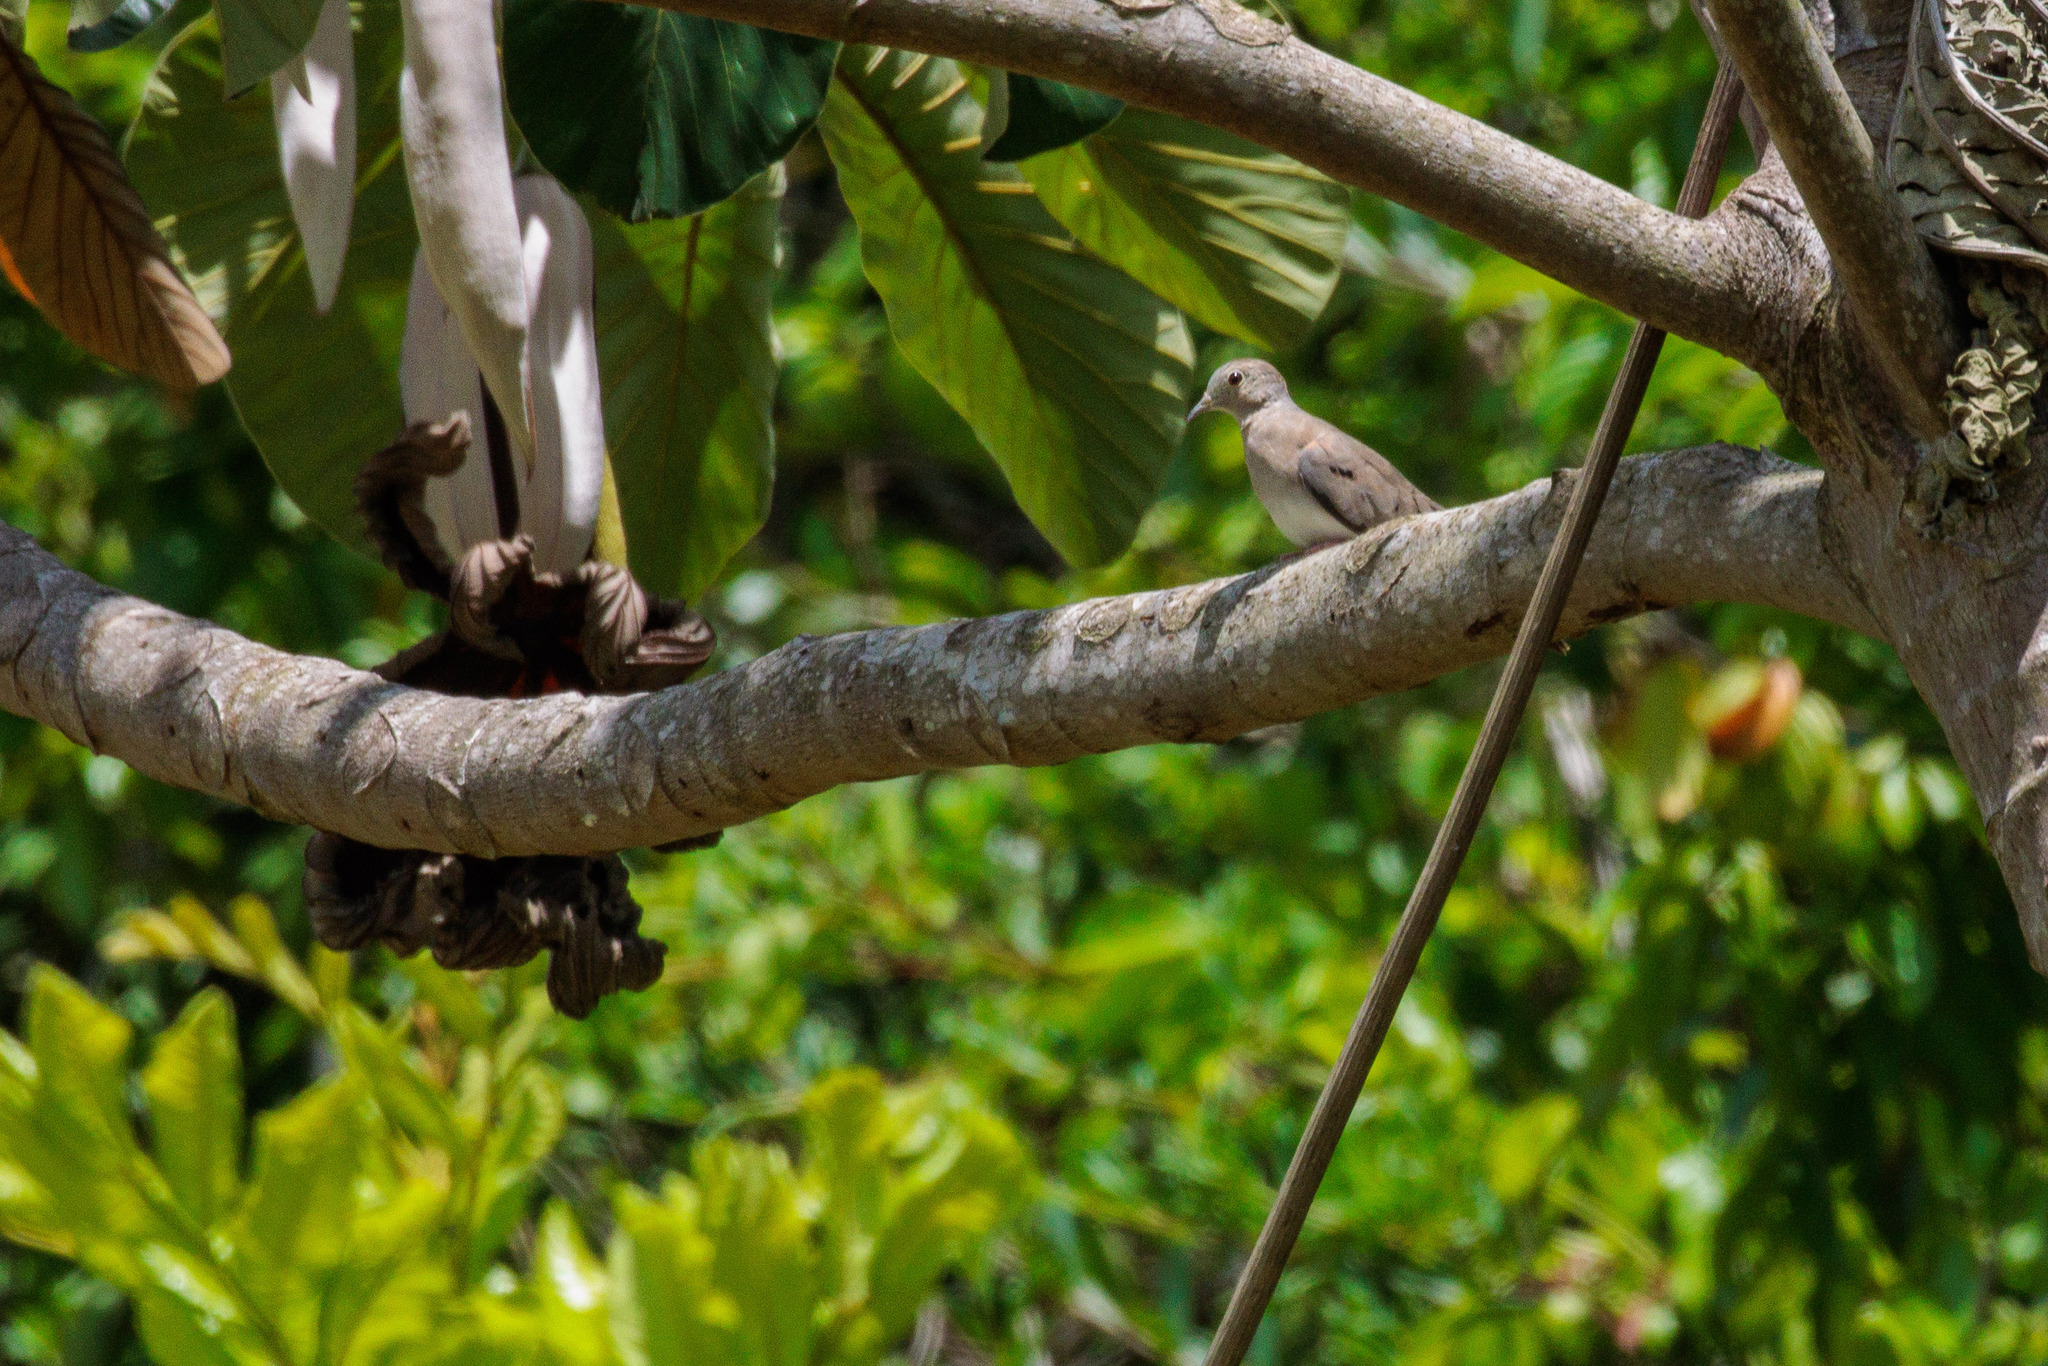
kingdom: Animalia
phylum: Chordata
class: Aves
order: Columbiformes
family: Columbidae
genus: Columbina
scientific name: Columbina minuta
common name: Plain-breasted ground dove
